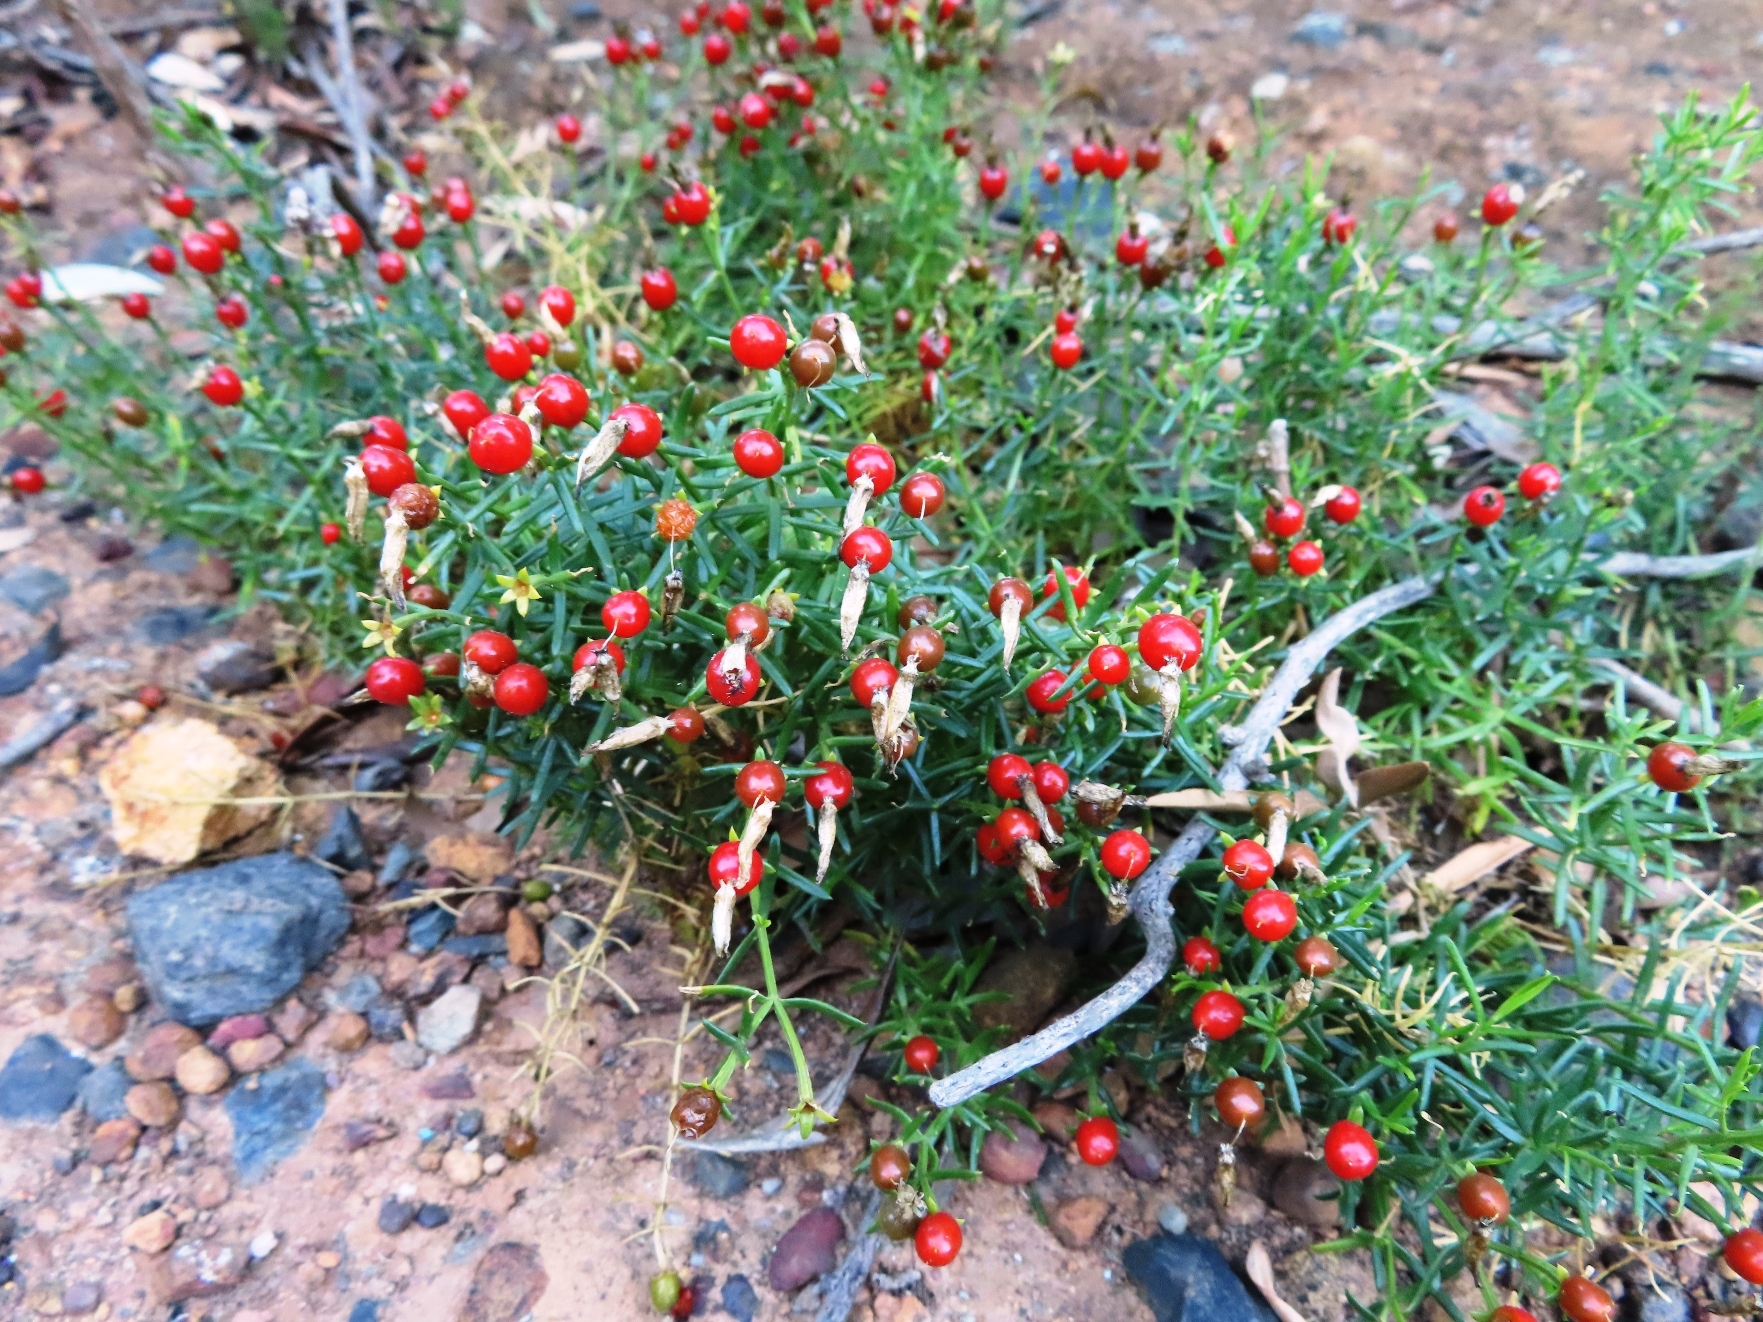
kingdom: Plantae
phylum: Tracheophyta
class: Magnoliopsida
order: Gentianales
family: Gentianaceae
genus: Chironia
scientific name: Chironia baccifera
